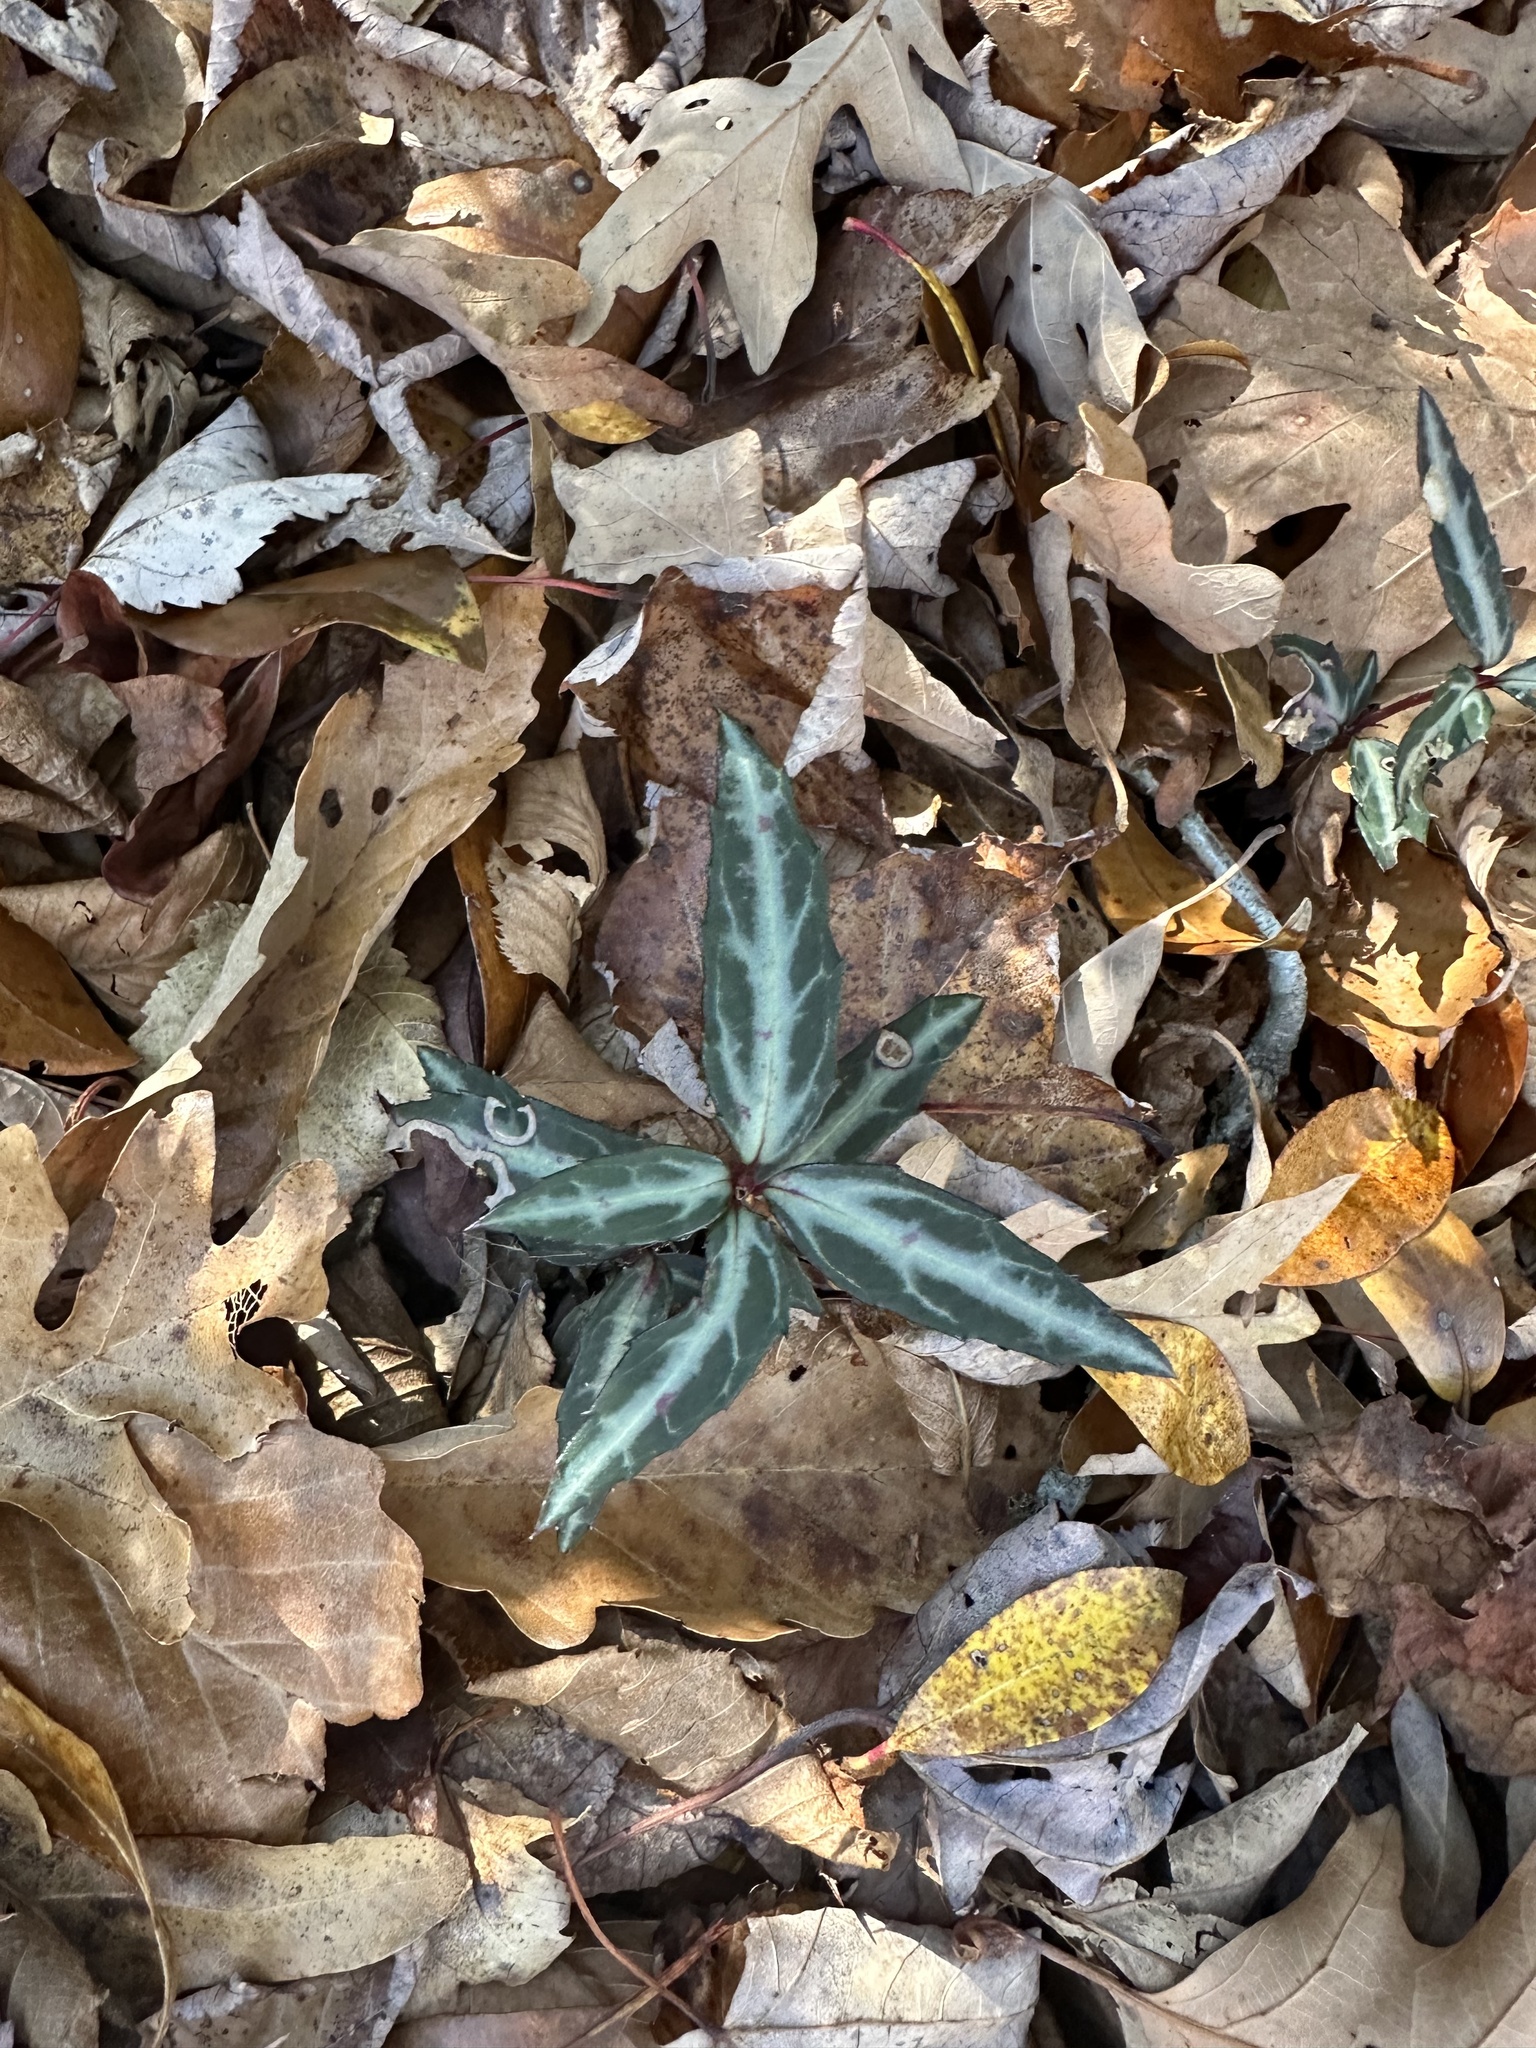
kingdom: Plantae
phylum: Tracheophyta
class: Magnoliopsida
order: Ericales
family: Ericaceae
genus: Chimaphila
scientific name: Chimaphila maculata
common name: Spotted pipsissewa
